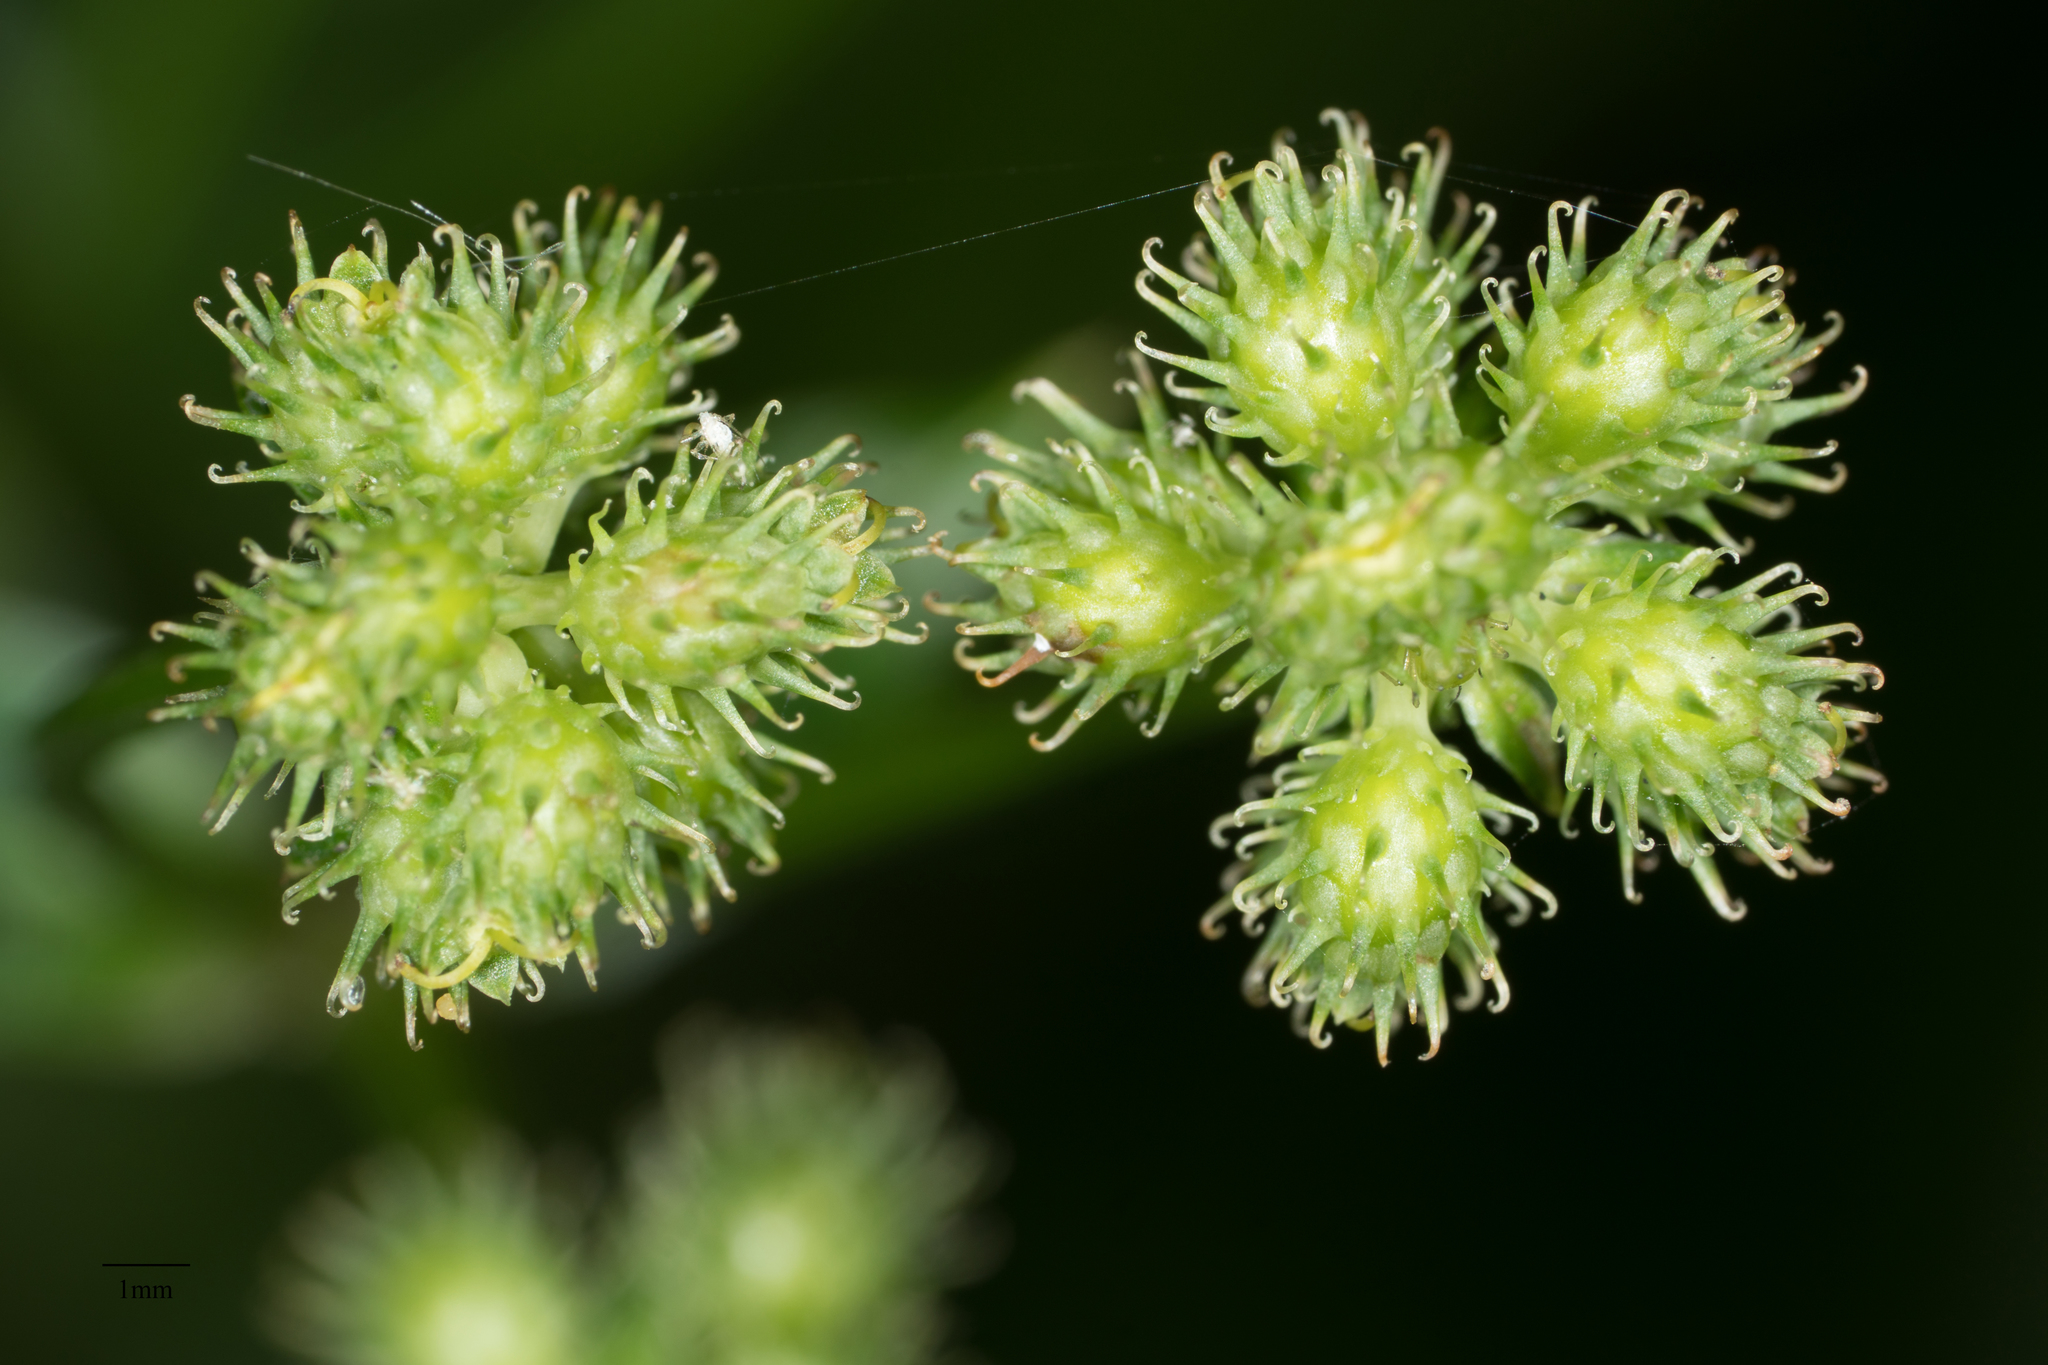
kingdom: Plantae
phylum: Tracheophyta
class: Magnoliopsida
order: Apiales
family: Apiaceae
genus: Sanicula
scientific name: Sanicula crassicaulis
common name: Western snakeroot
